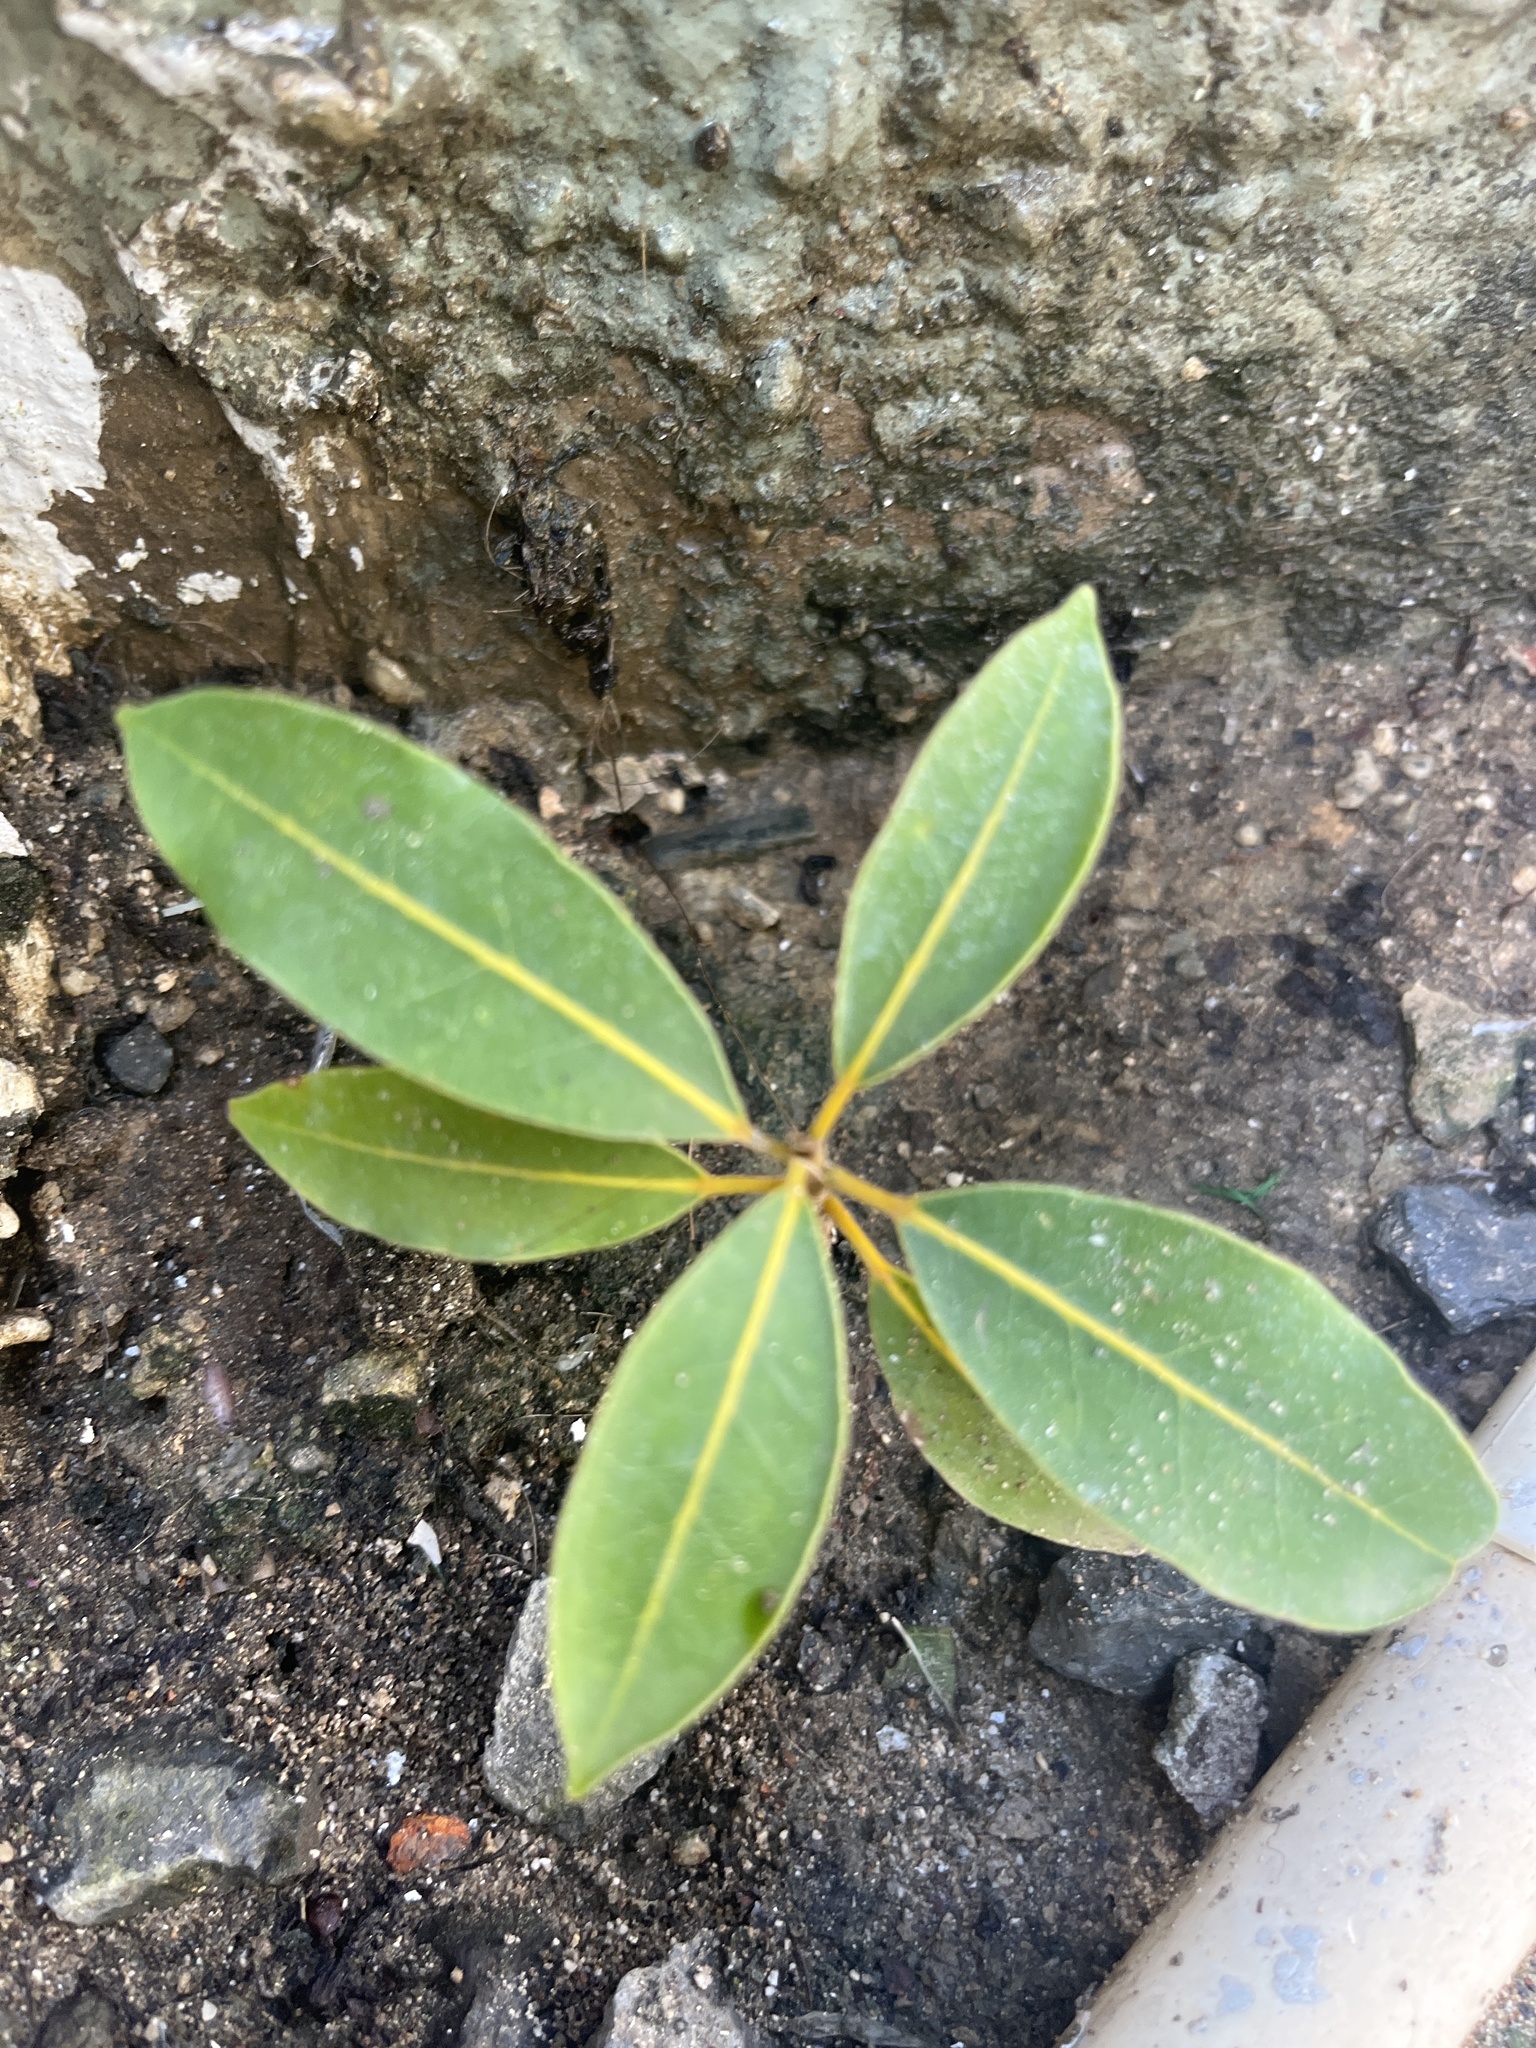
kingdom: Plantae
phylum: Tracheophyta
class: Magnoliopsida
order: Lamiales
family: Bignoniaceae
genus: Tabebuia
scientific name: Tabebuia heterophylla
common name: White cedar
